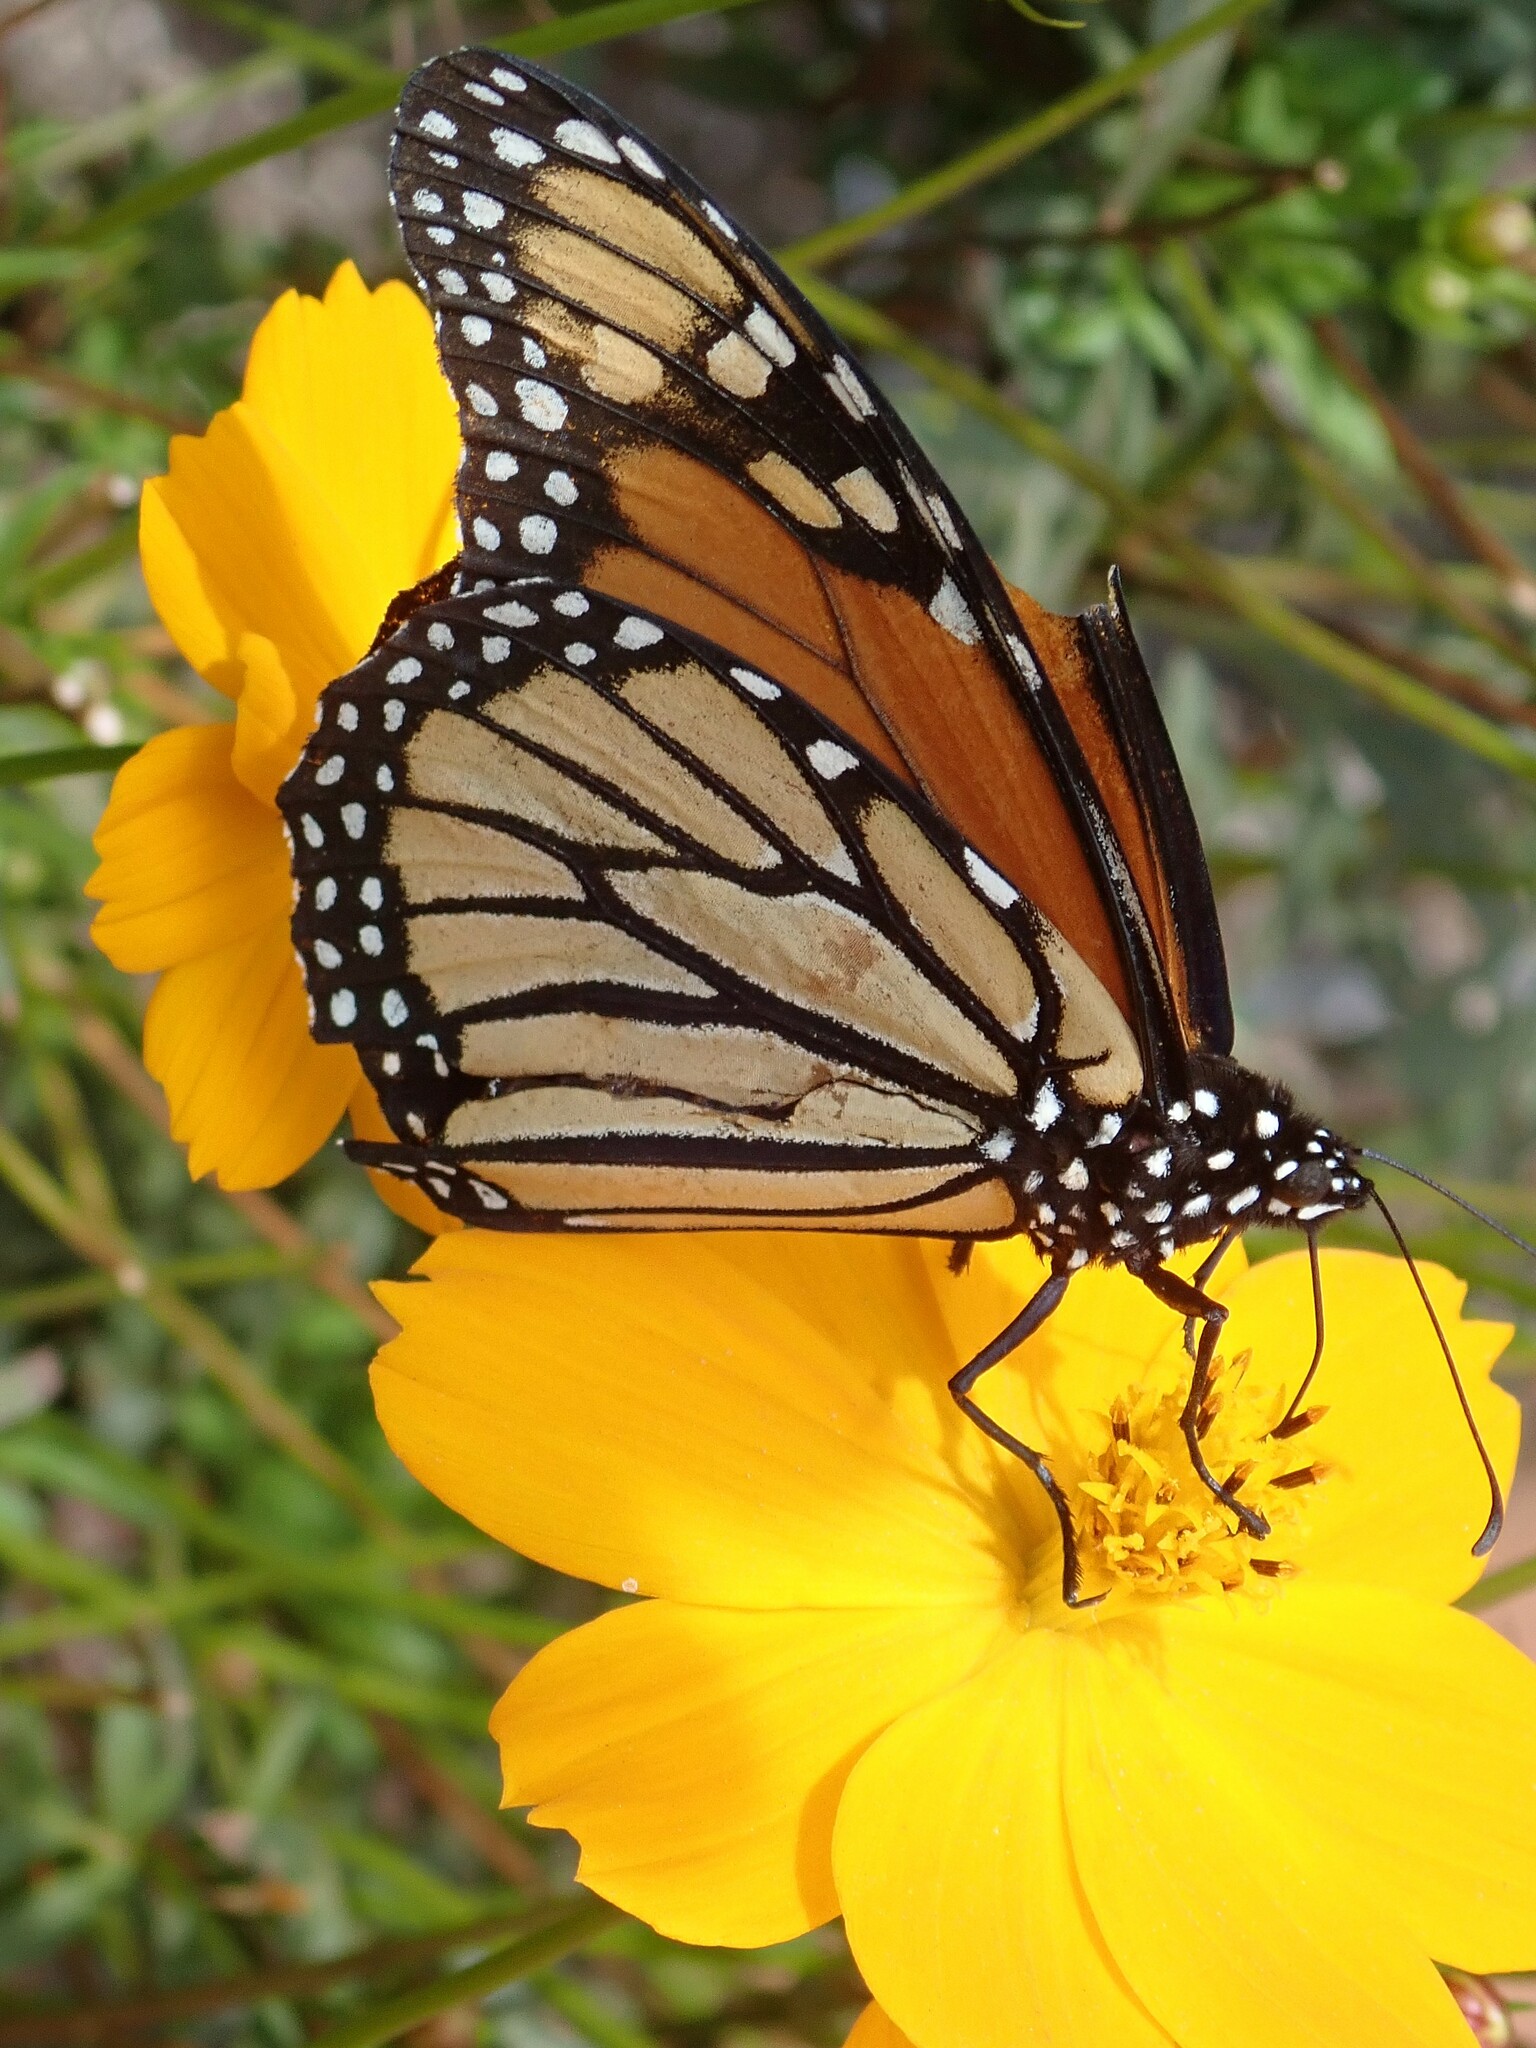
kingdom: Animalia
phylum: Arthropoda
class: Insecta
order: Lepidoptera
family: Nymphalidae
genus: Danaus
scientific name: Danaus plexippus
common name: Monarch
